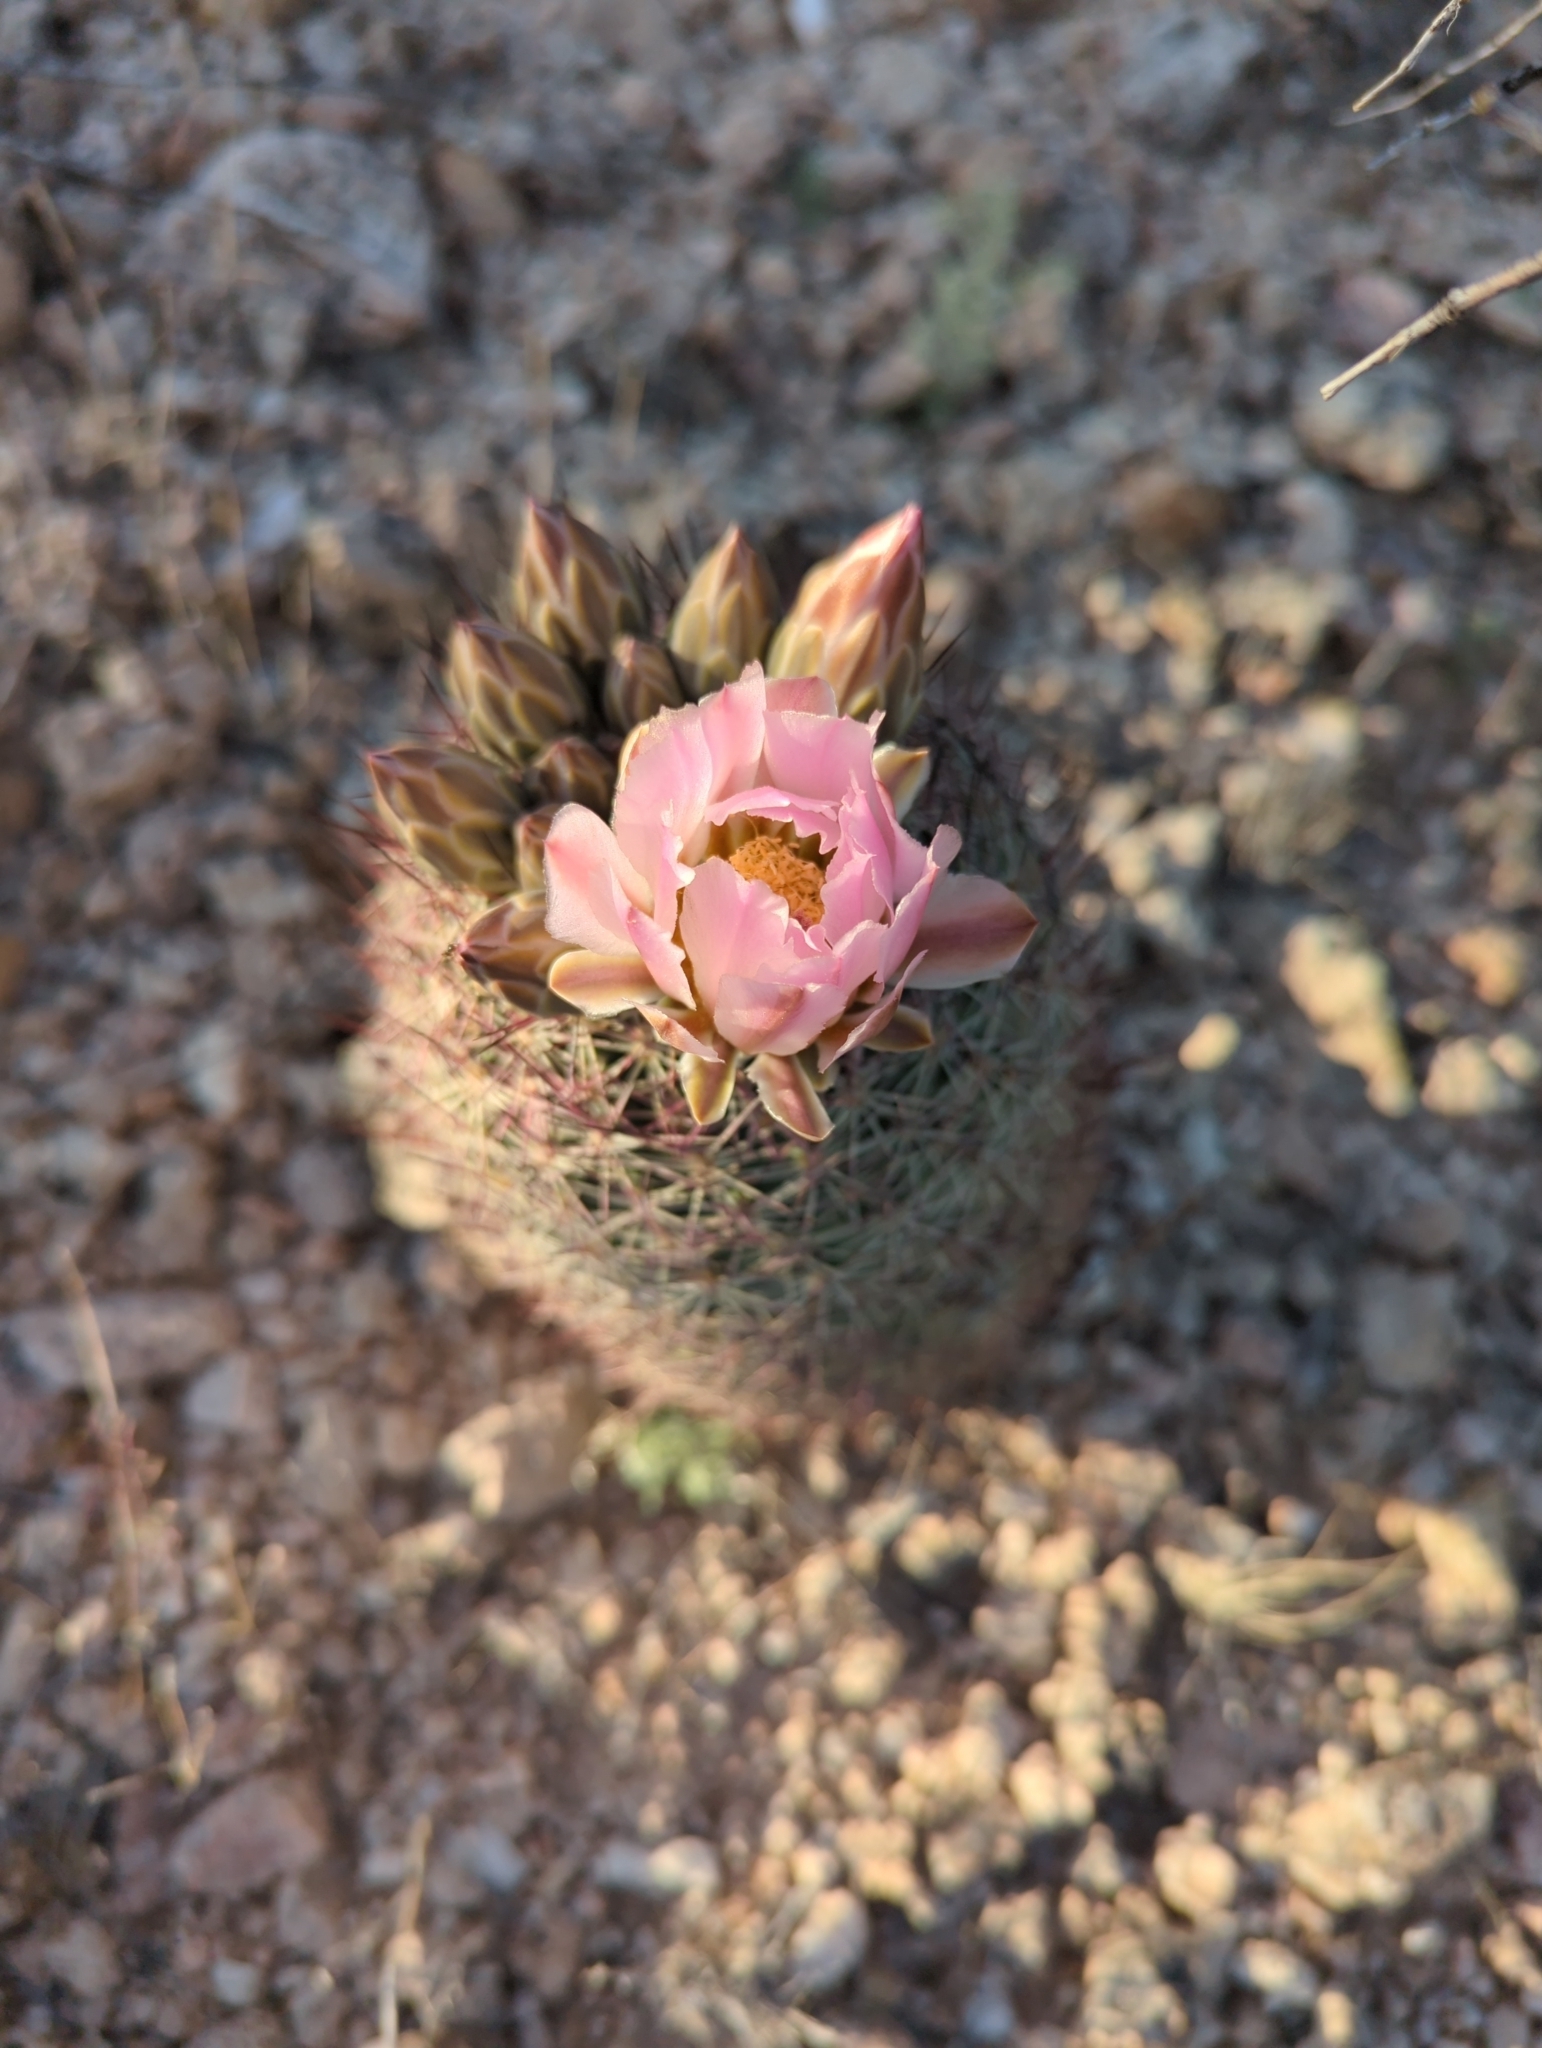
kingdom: Plantae
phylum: Tracheophyta
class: Magnoliopsida
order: Caryophyllales
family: Cactaceae
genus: Sclerocactus
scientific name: Sclerocactus johnsonii
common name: Eight-spine fishhook cactus
